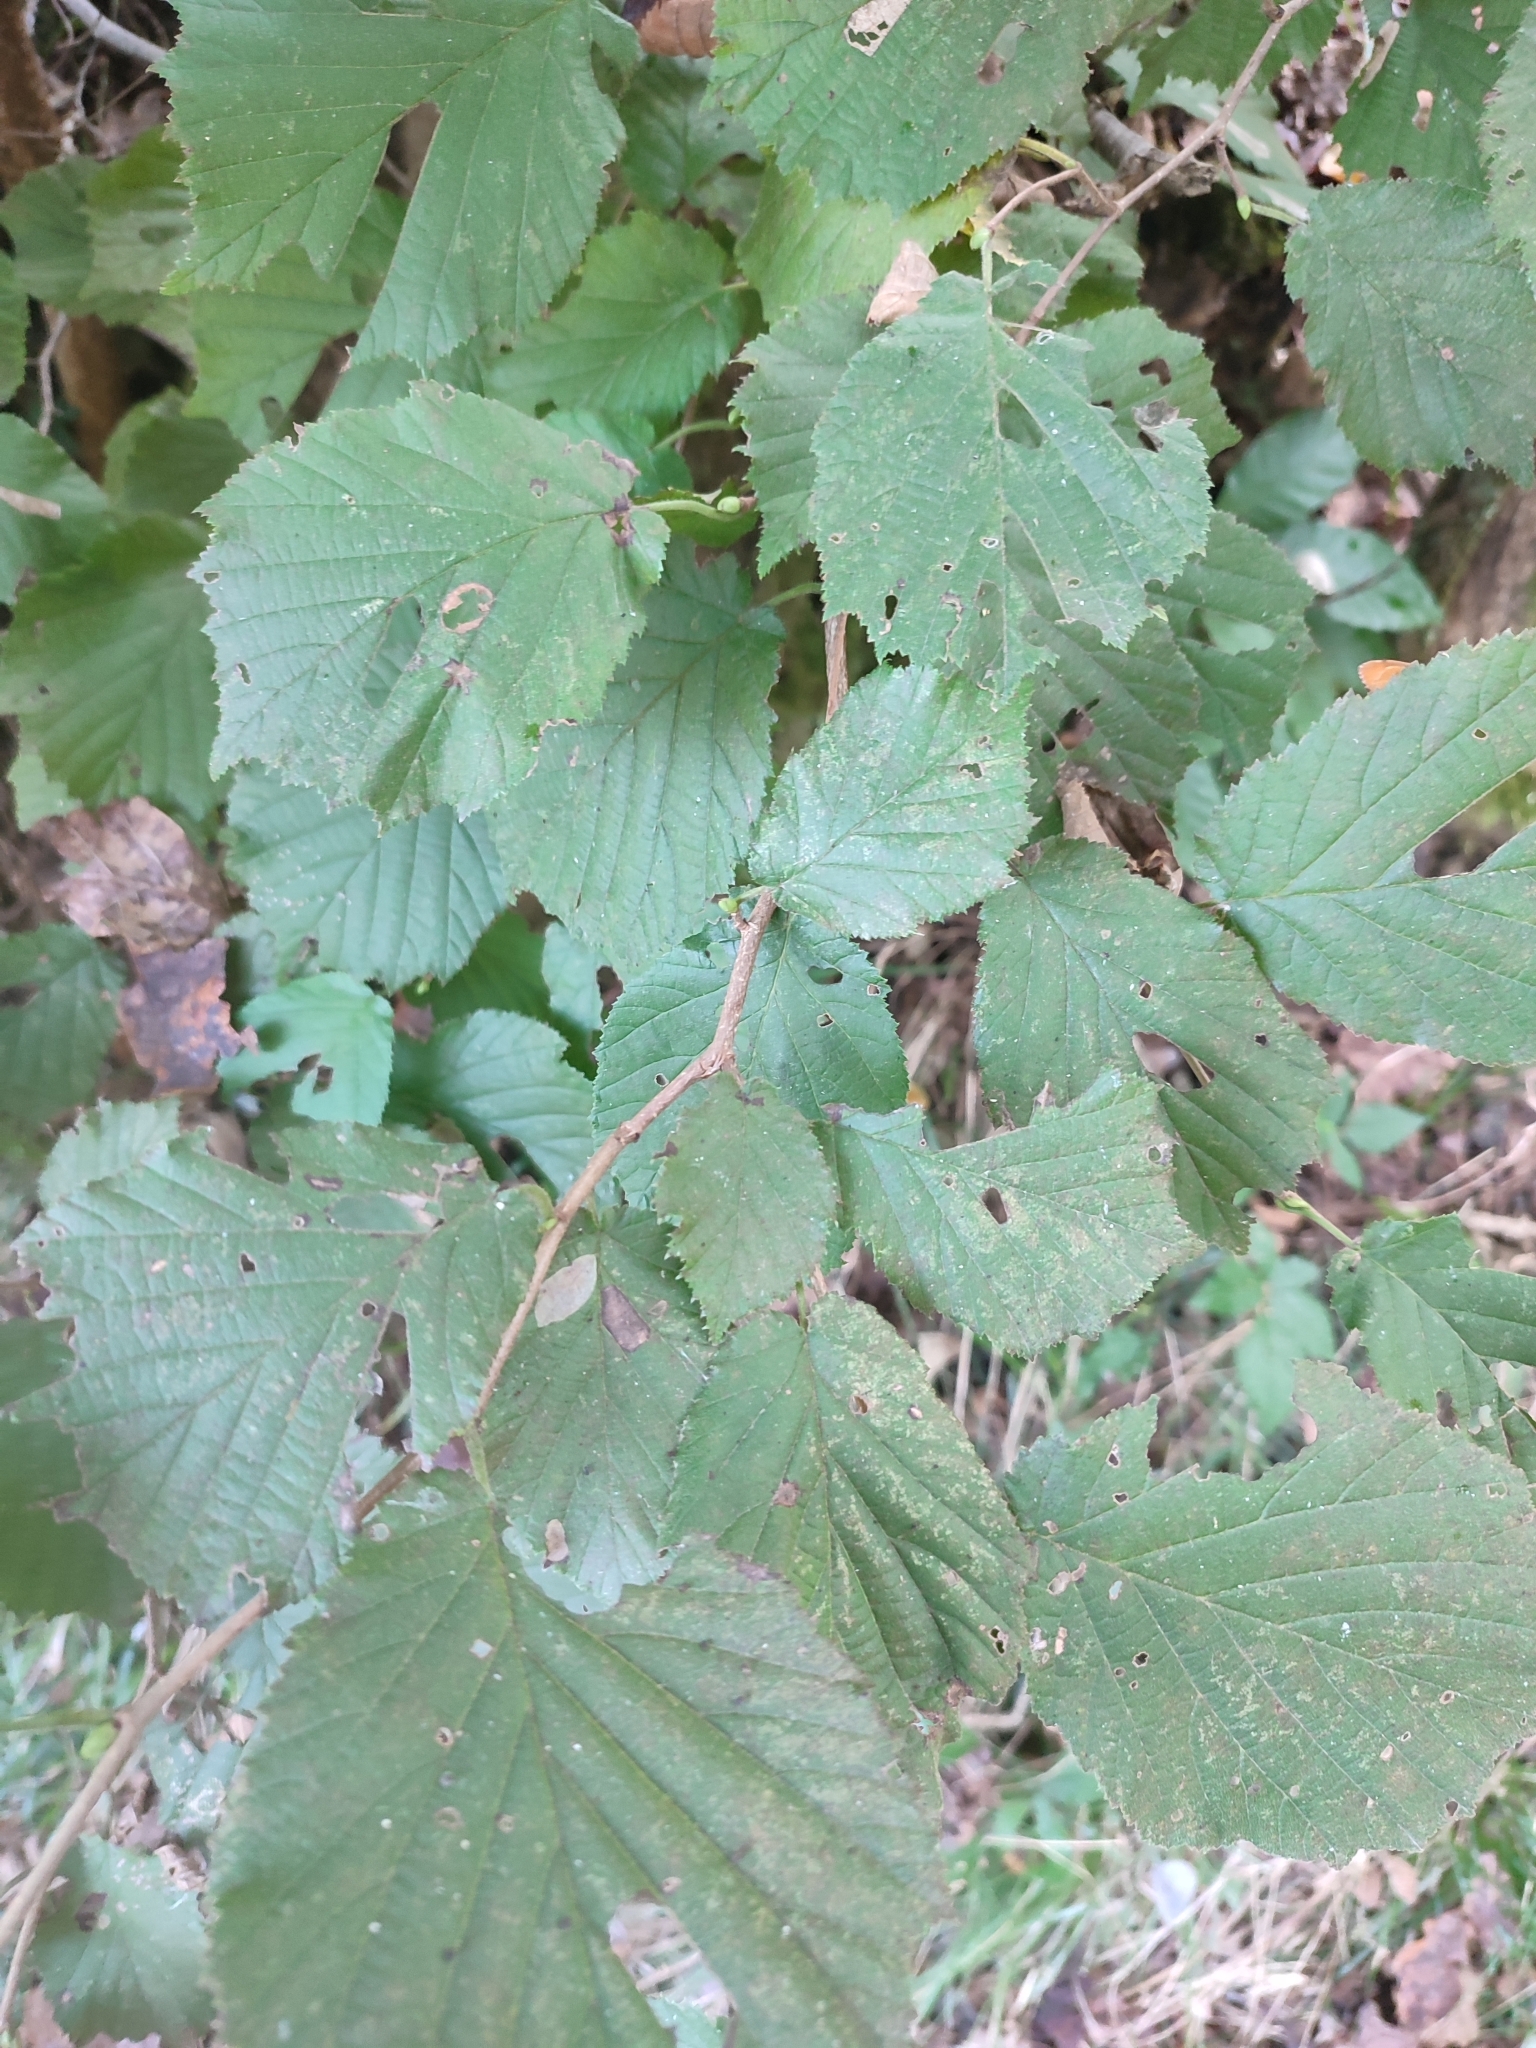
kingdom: Plantae
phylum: Tracheophyta
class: Magnoliopsida
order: Fagales
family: Betulaceae
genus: Corylus
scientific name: Corylus avellana
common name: European hazel
